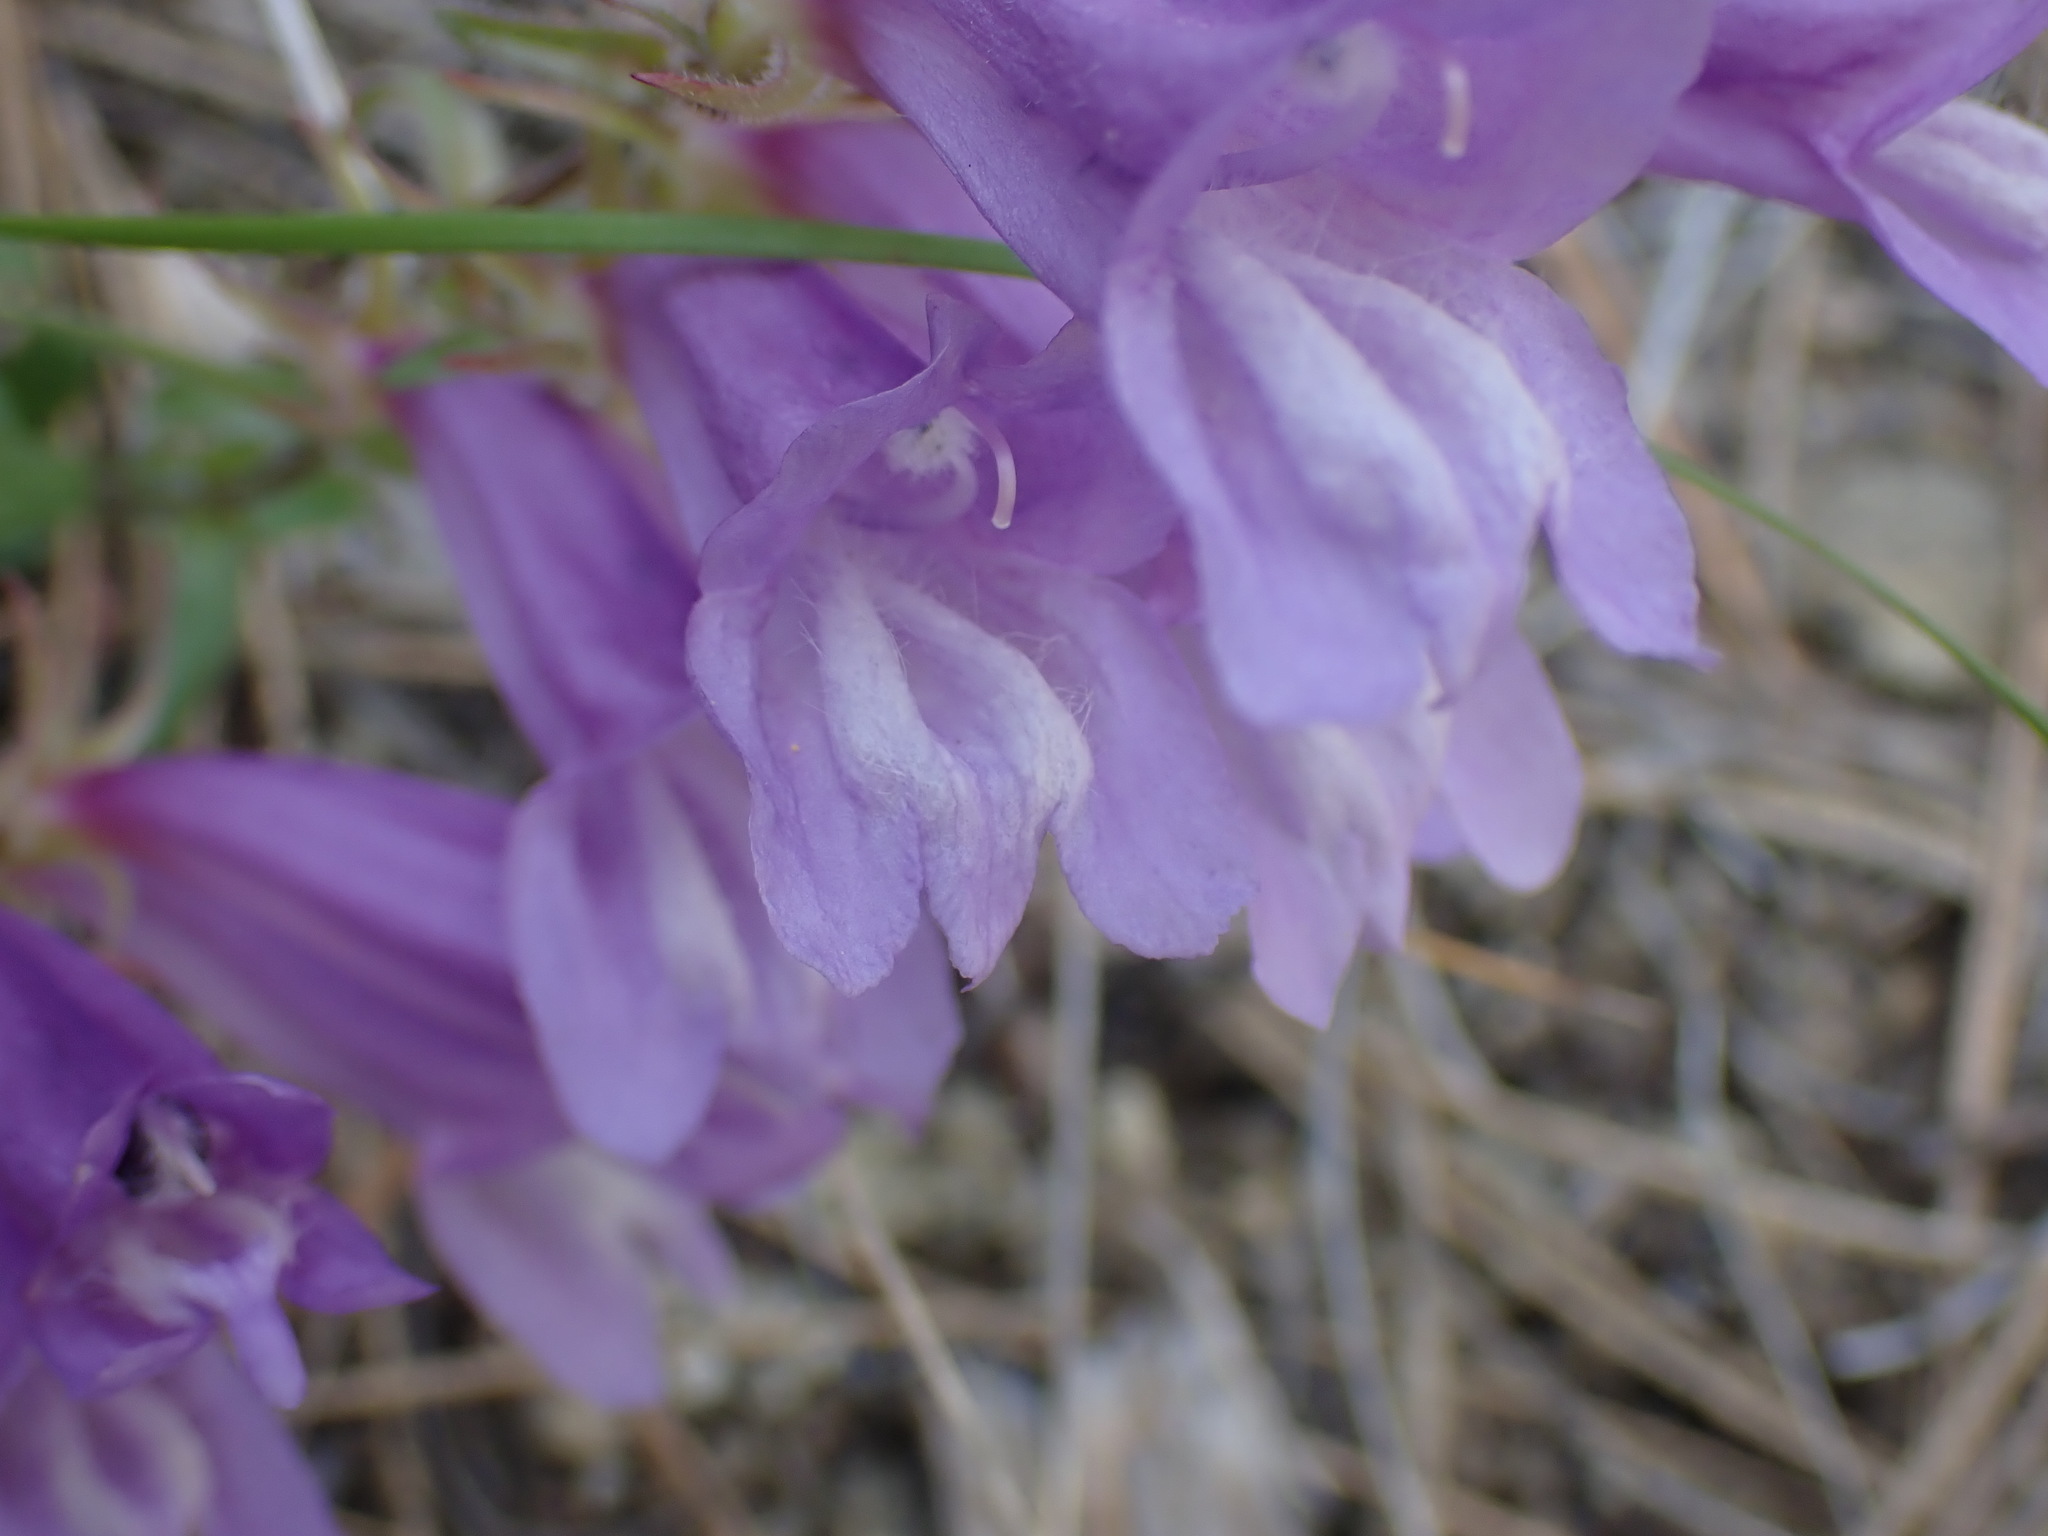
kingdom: Plantae
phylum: Tracheophyta
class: Magnoliopsida
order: Lamiales
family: Plantaginaceae
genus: Penstemon
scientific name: Penstemon fruticosus
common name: Bush penstemon
